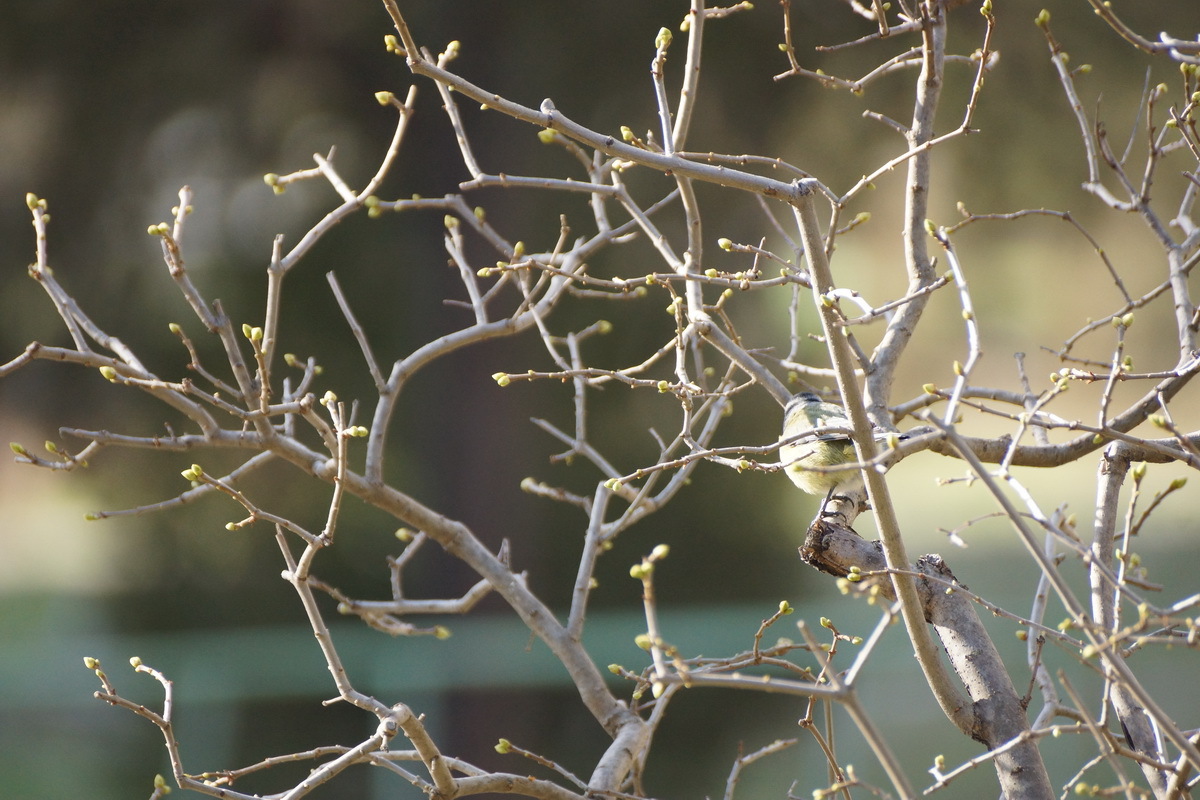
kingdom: Animalia
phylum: Chordata
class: Aves
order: Passeriformes
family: Paridae
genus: Cyanistes
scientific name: Cyanistes caeruleus
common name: Eurasian blue tit
